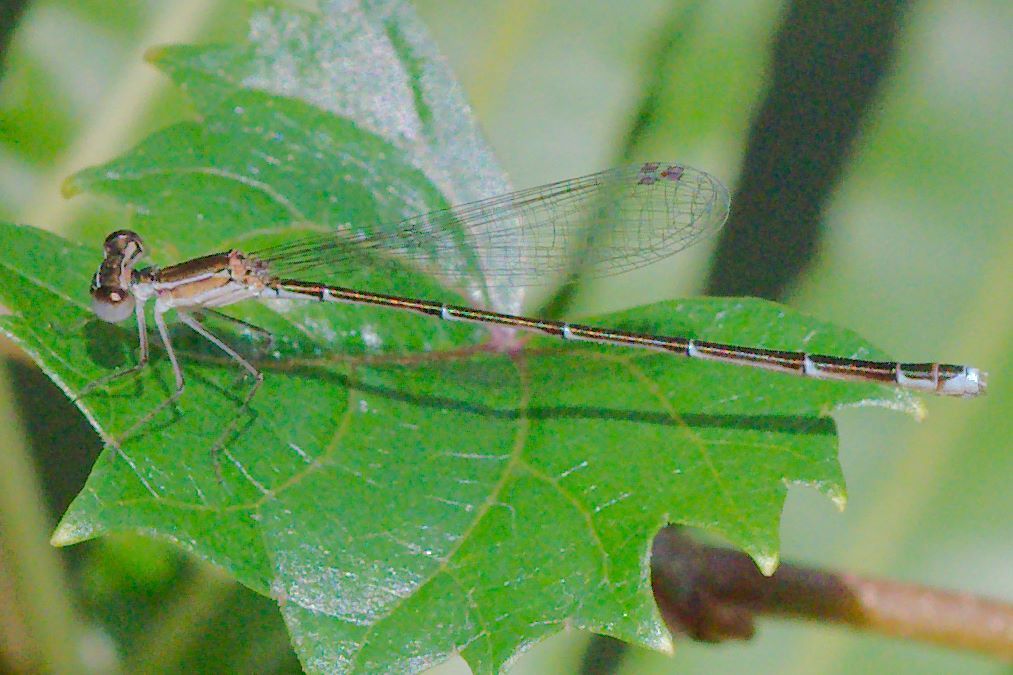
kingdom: Animalia
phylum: Arthropoda
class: Insecta
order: Odonata
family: Coenagrionidae
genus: Nehalennia
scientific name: Nehalennia pallidula
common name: Everglades sprite
